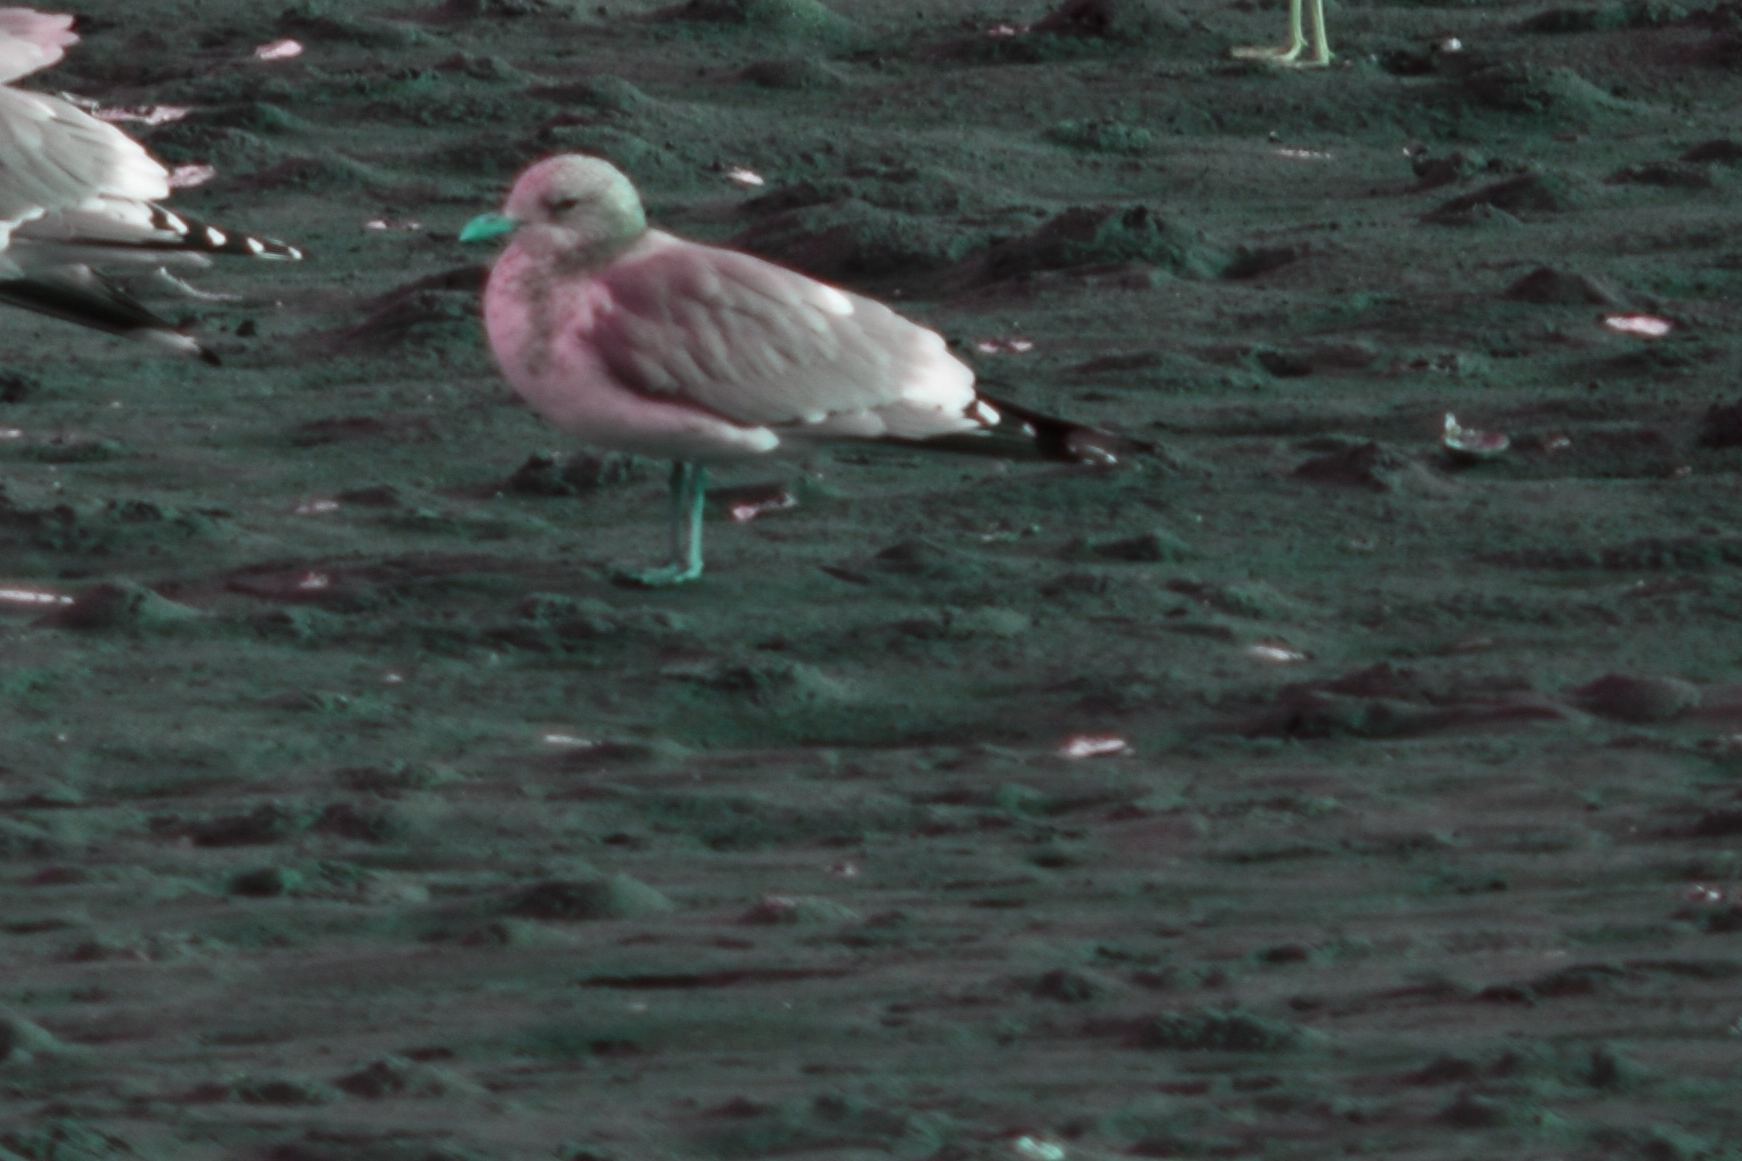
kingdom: Animalia
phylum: Chordata
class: Aves
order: Charadriiformes
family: Laridae
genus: Larus
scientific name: Larus brachyrhynchus
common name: Short-billed gull
